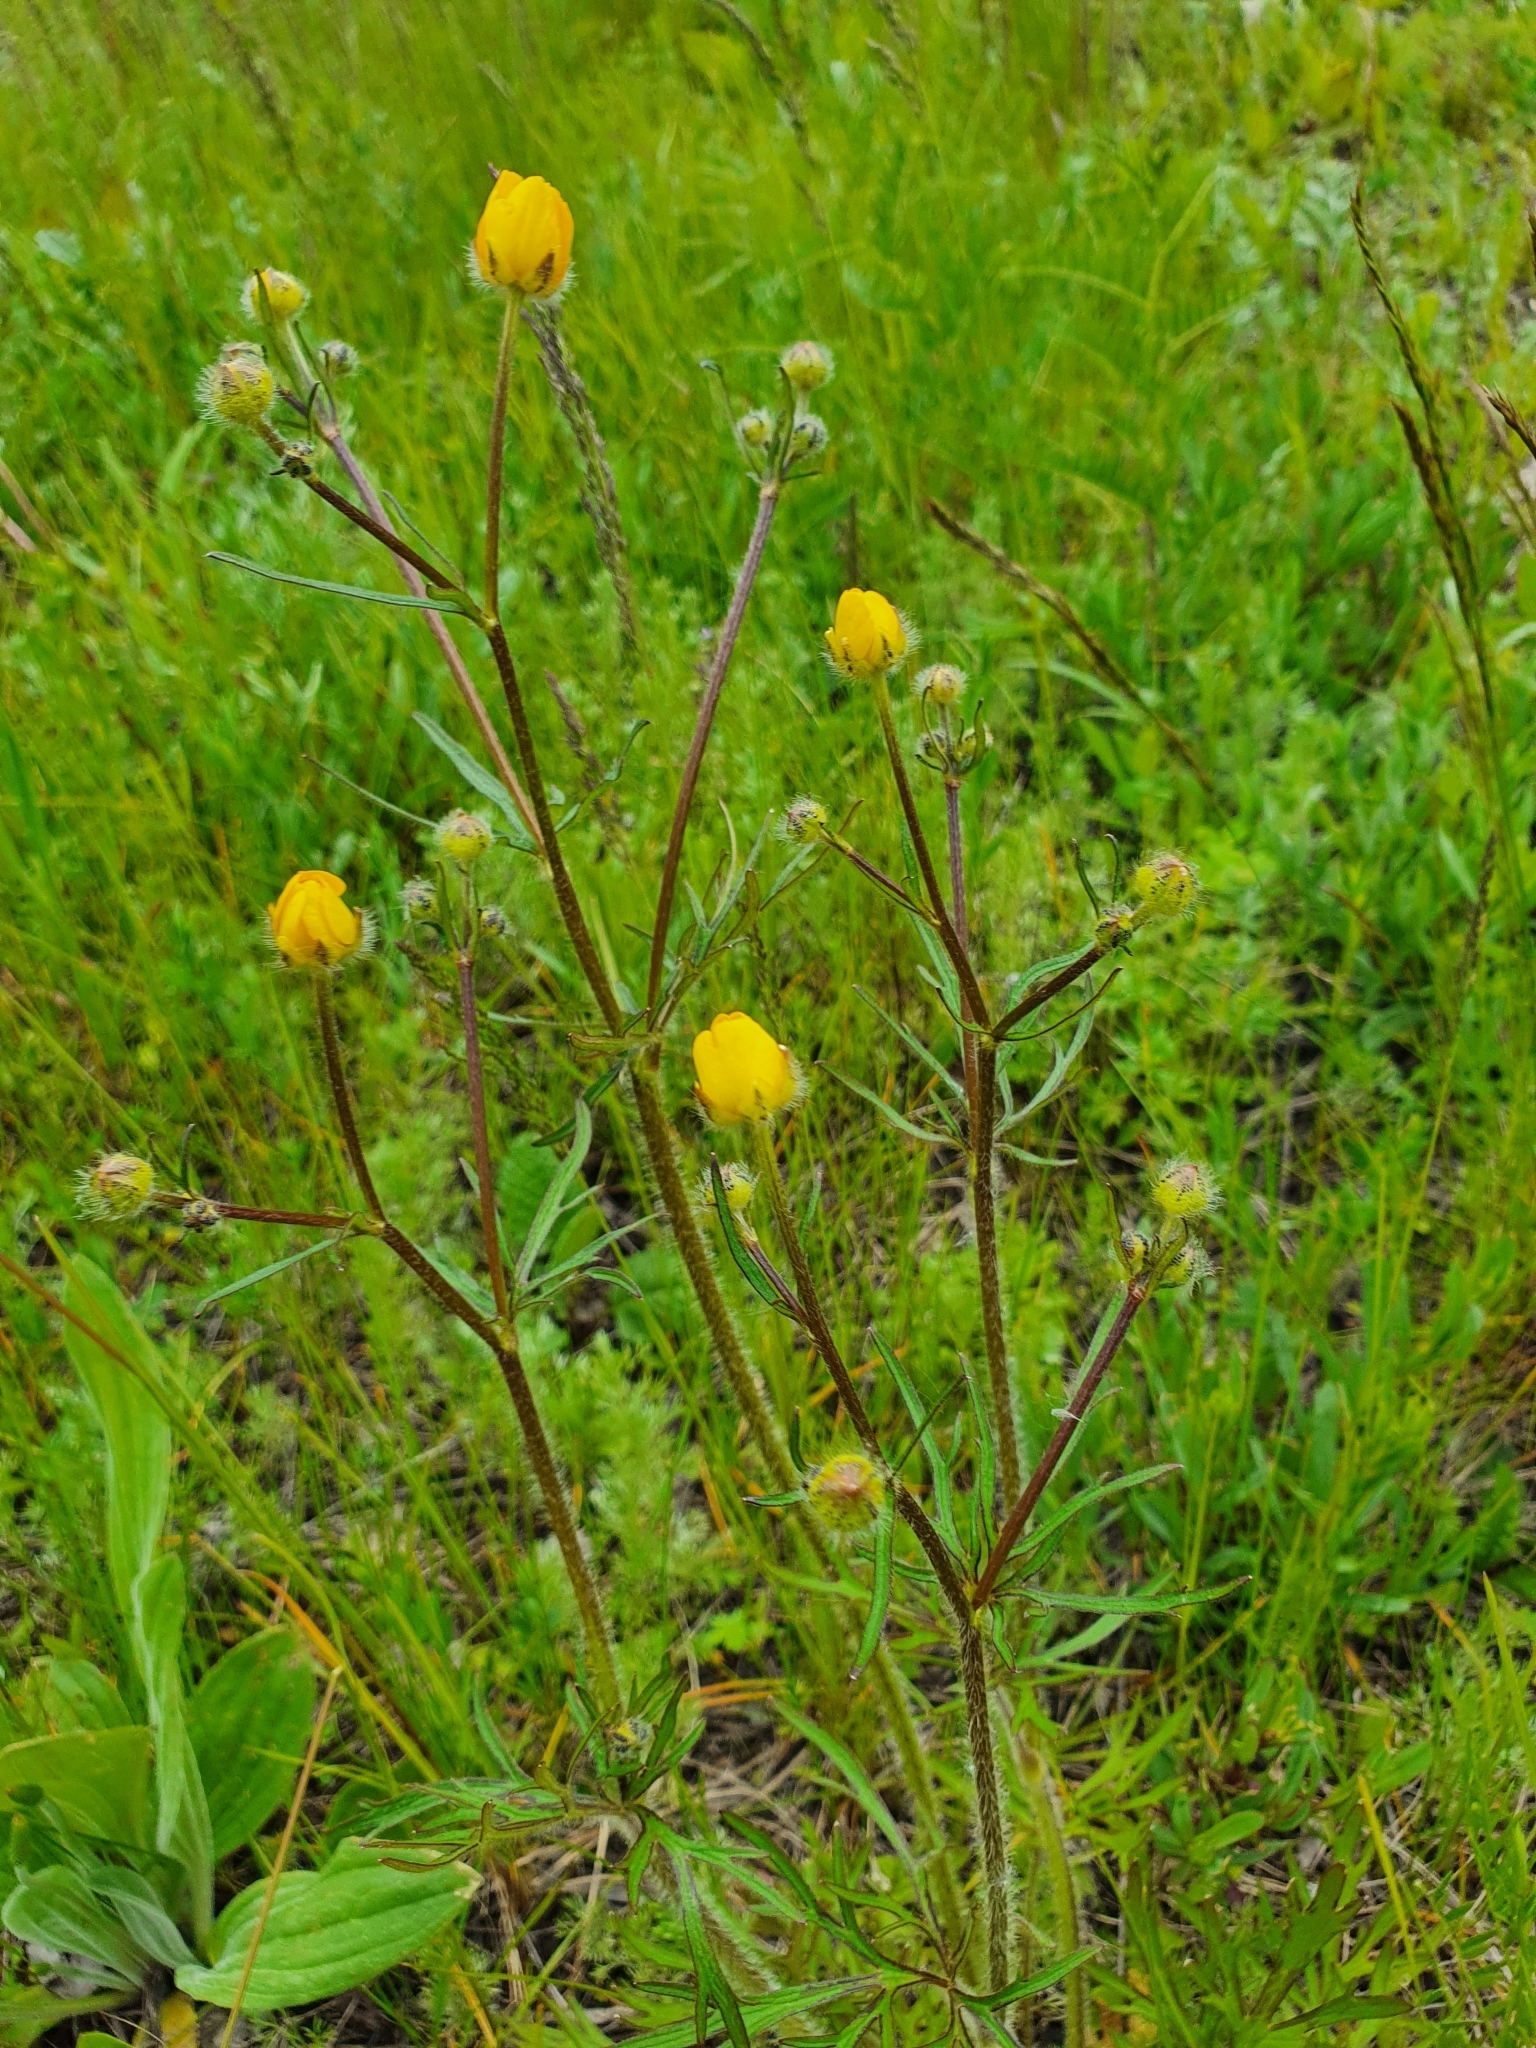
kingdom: Plantae
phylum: Tracheophyta
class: Magnoliopsida
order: Ranunculales
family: Ranunculaceae
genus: Ranunculus
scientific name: Ranunculus polyanthemos
